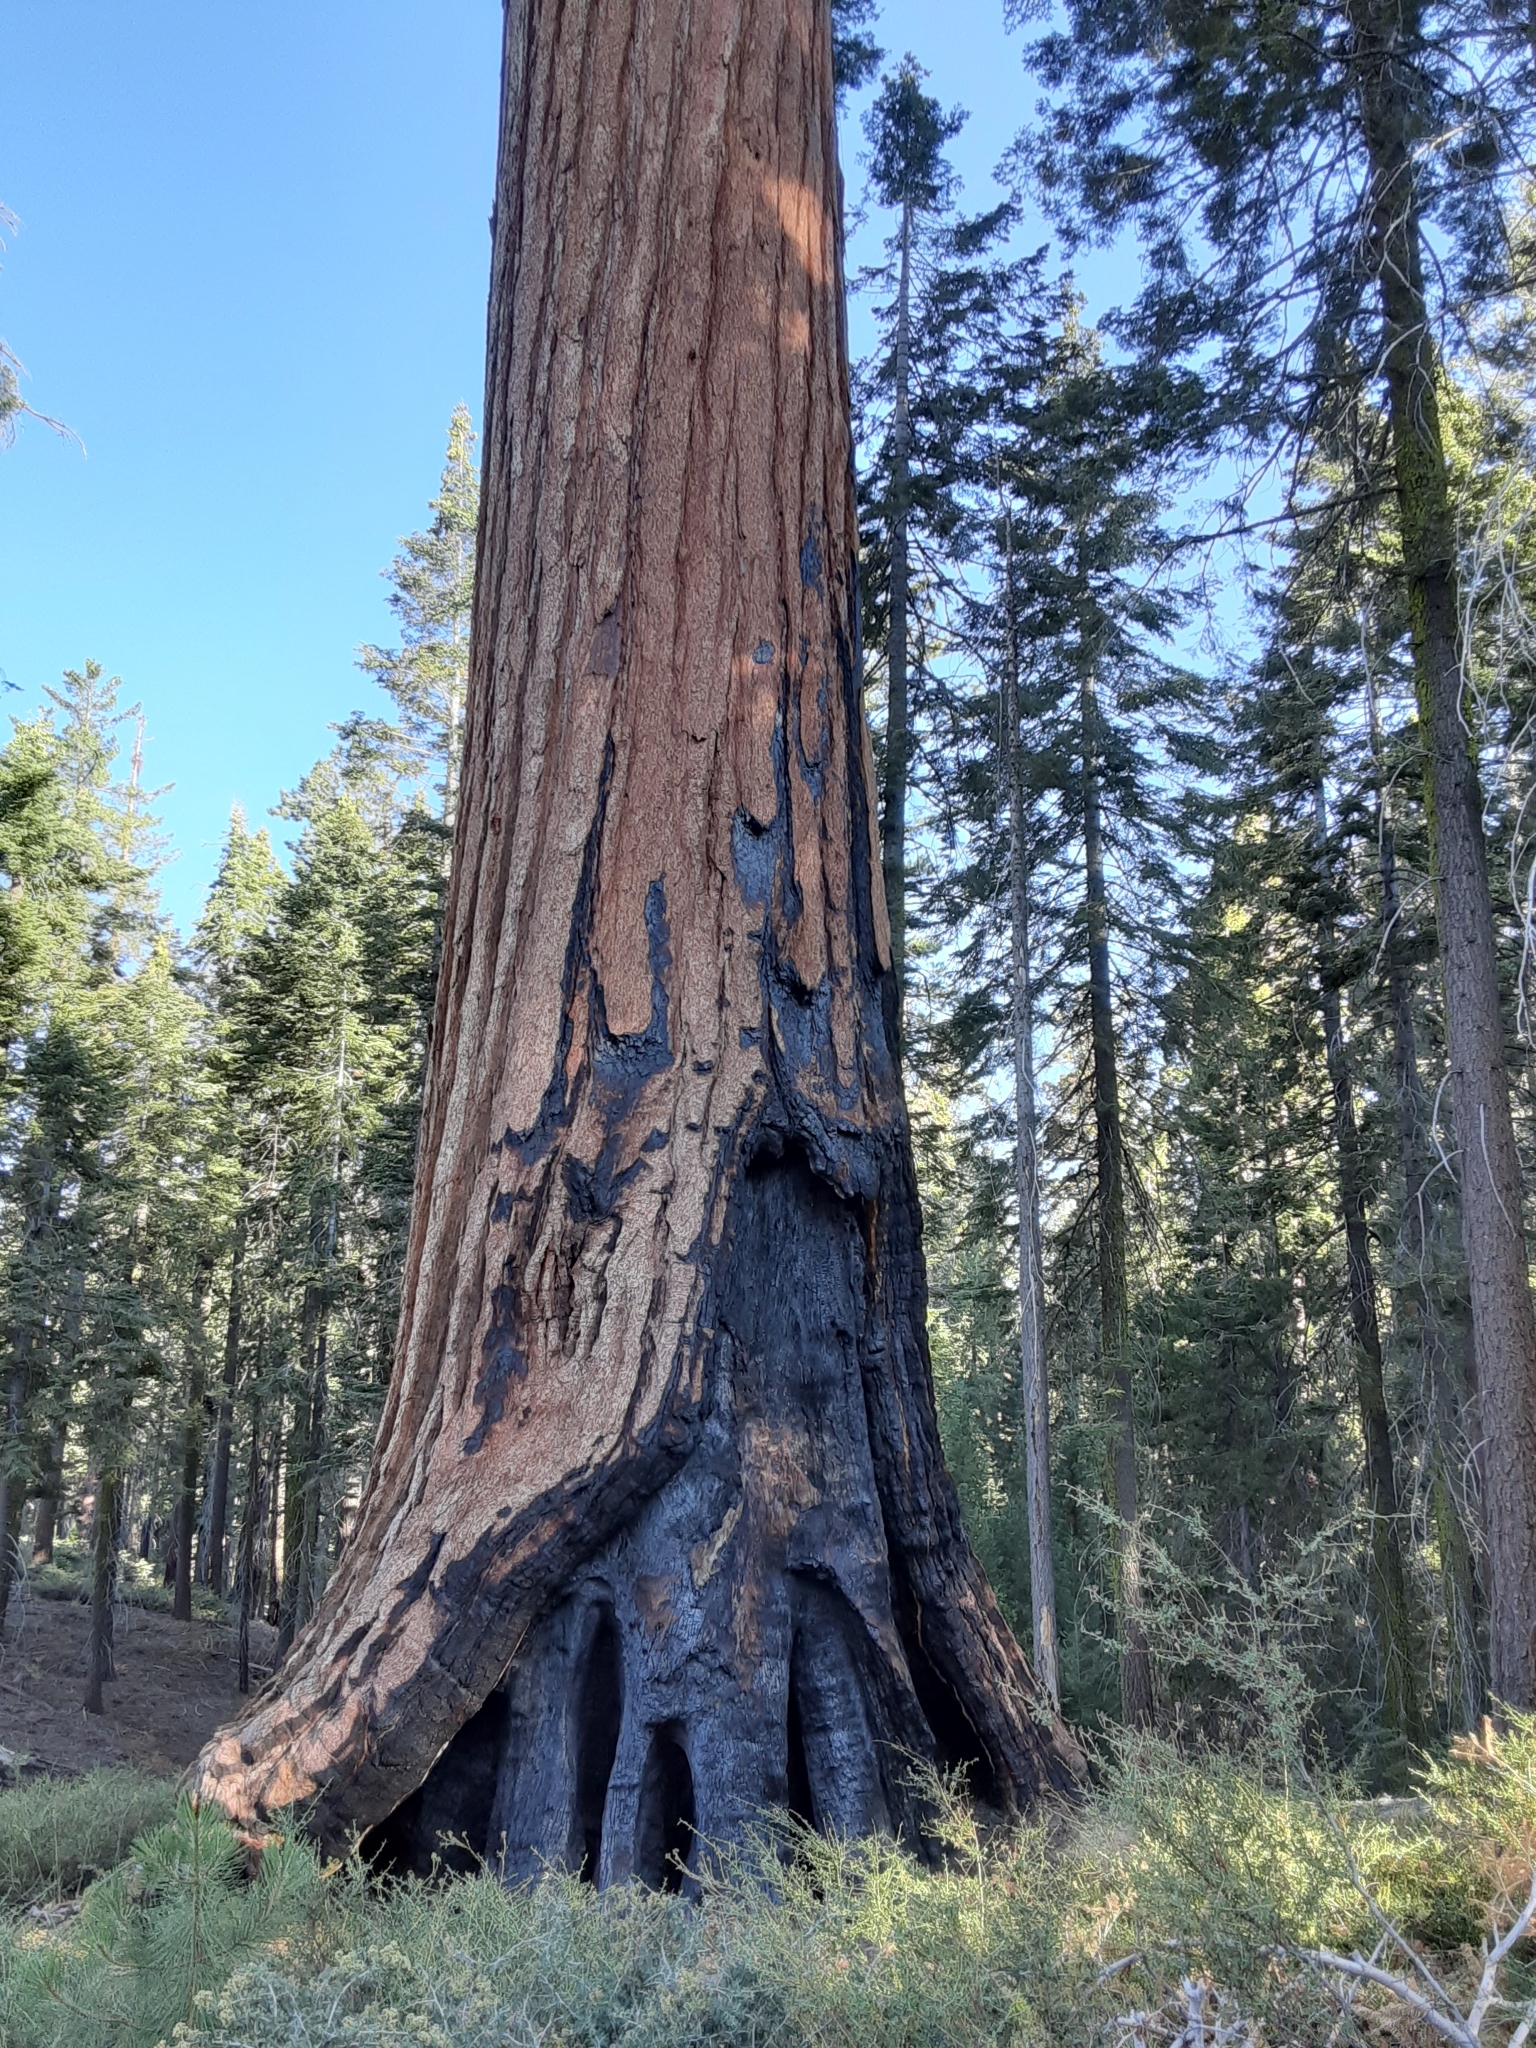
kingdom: Plantae
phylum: Tracheophyta
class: Pinopsida
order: Pinales
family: Cupressaceae
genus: Sequoiadendron
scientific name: Sequoiadendron giganteum
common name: Wellingtonia
